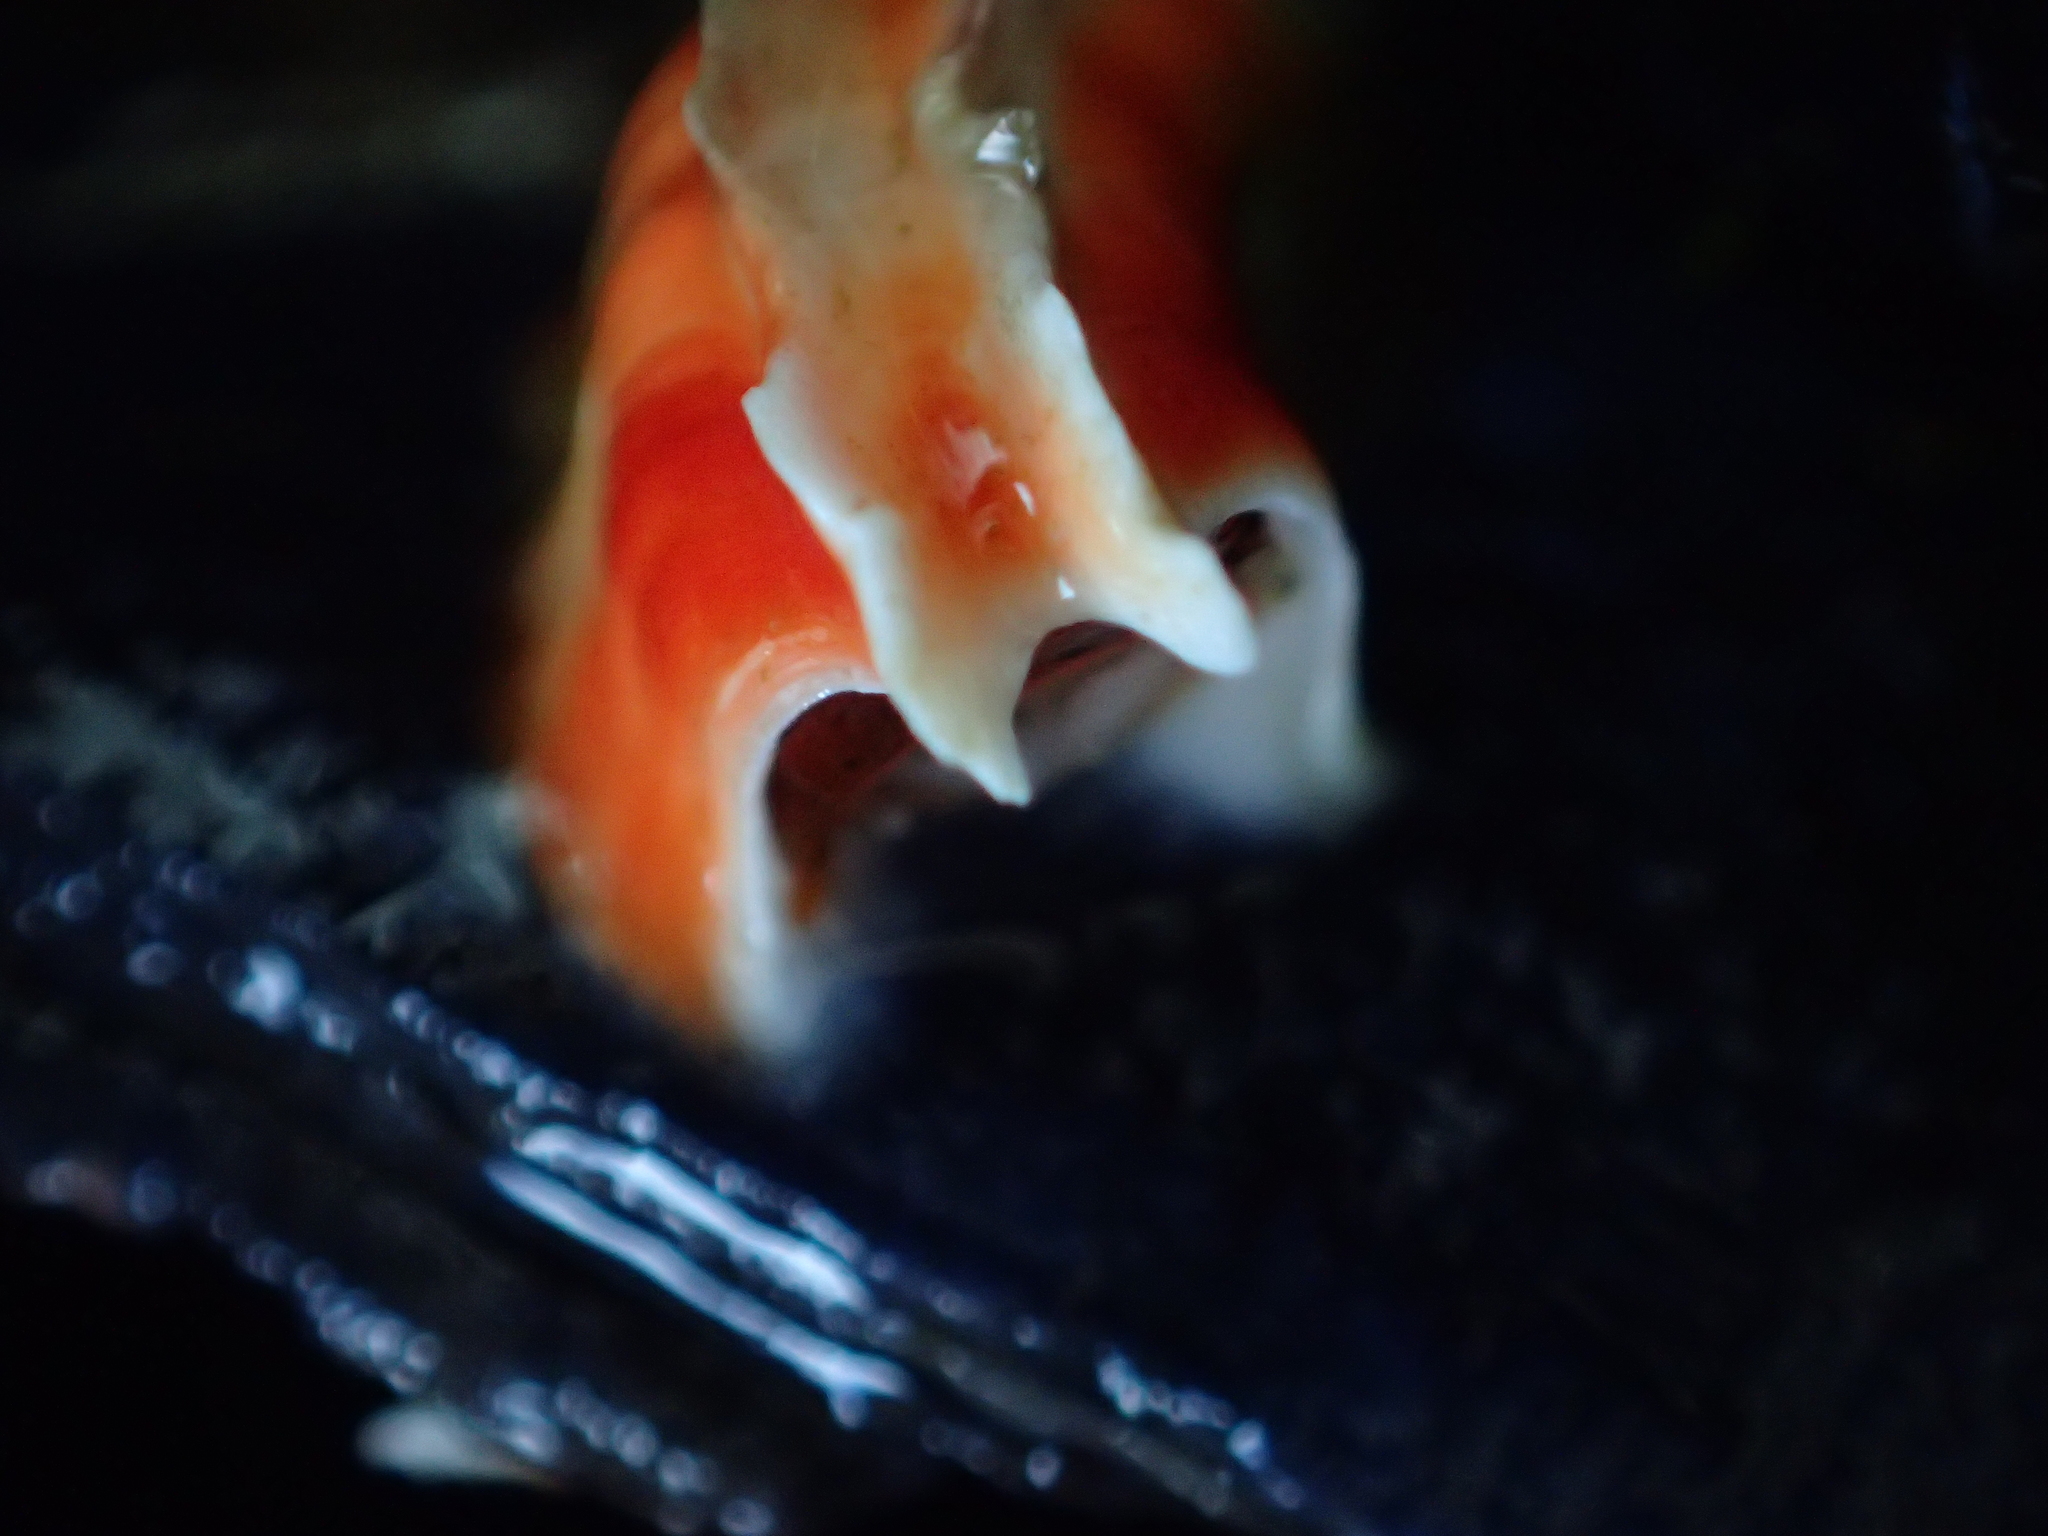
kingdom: Animalia
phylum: Annelida
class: Polychaeta
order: Sabellida
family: Serpulidae
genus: Galeolaria
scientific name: Galeolaria hystrix
